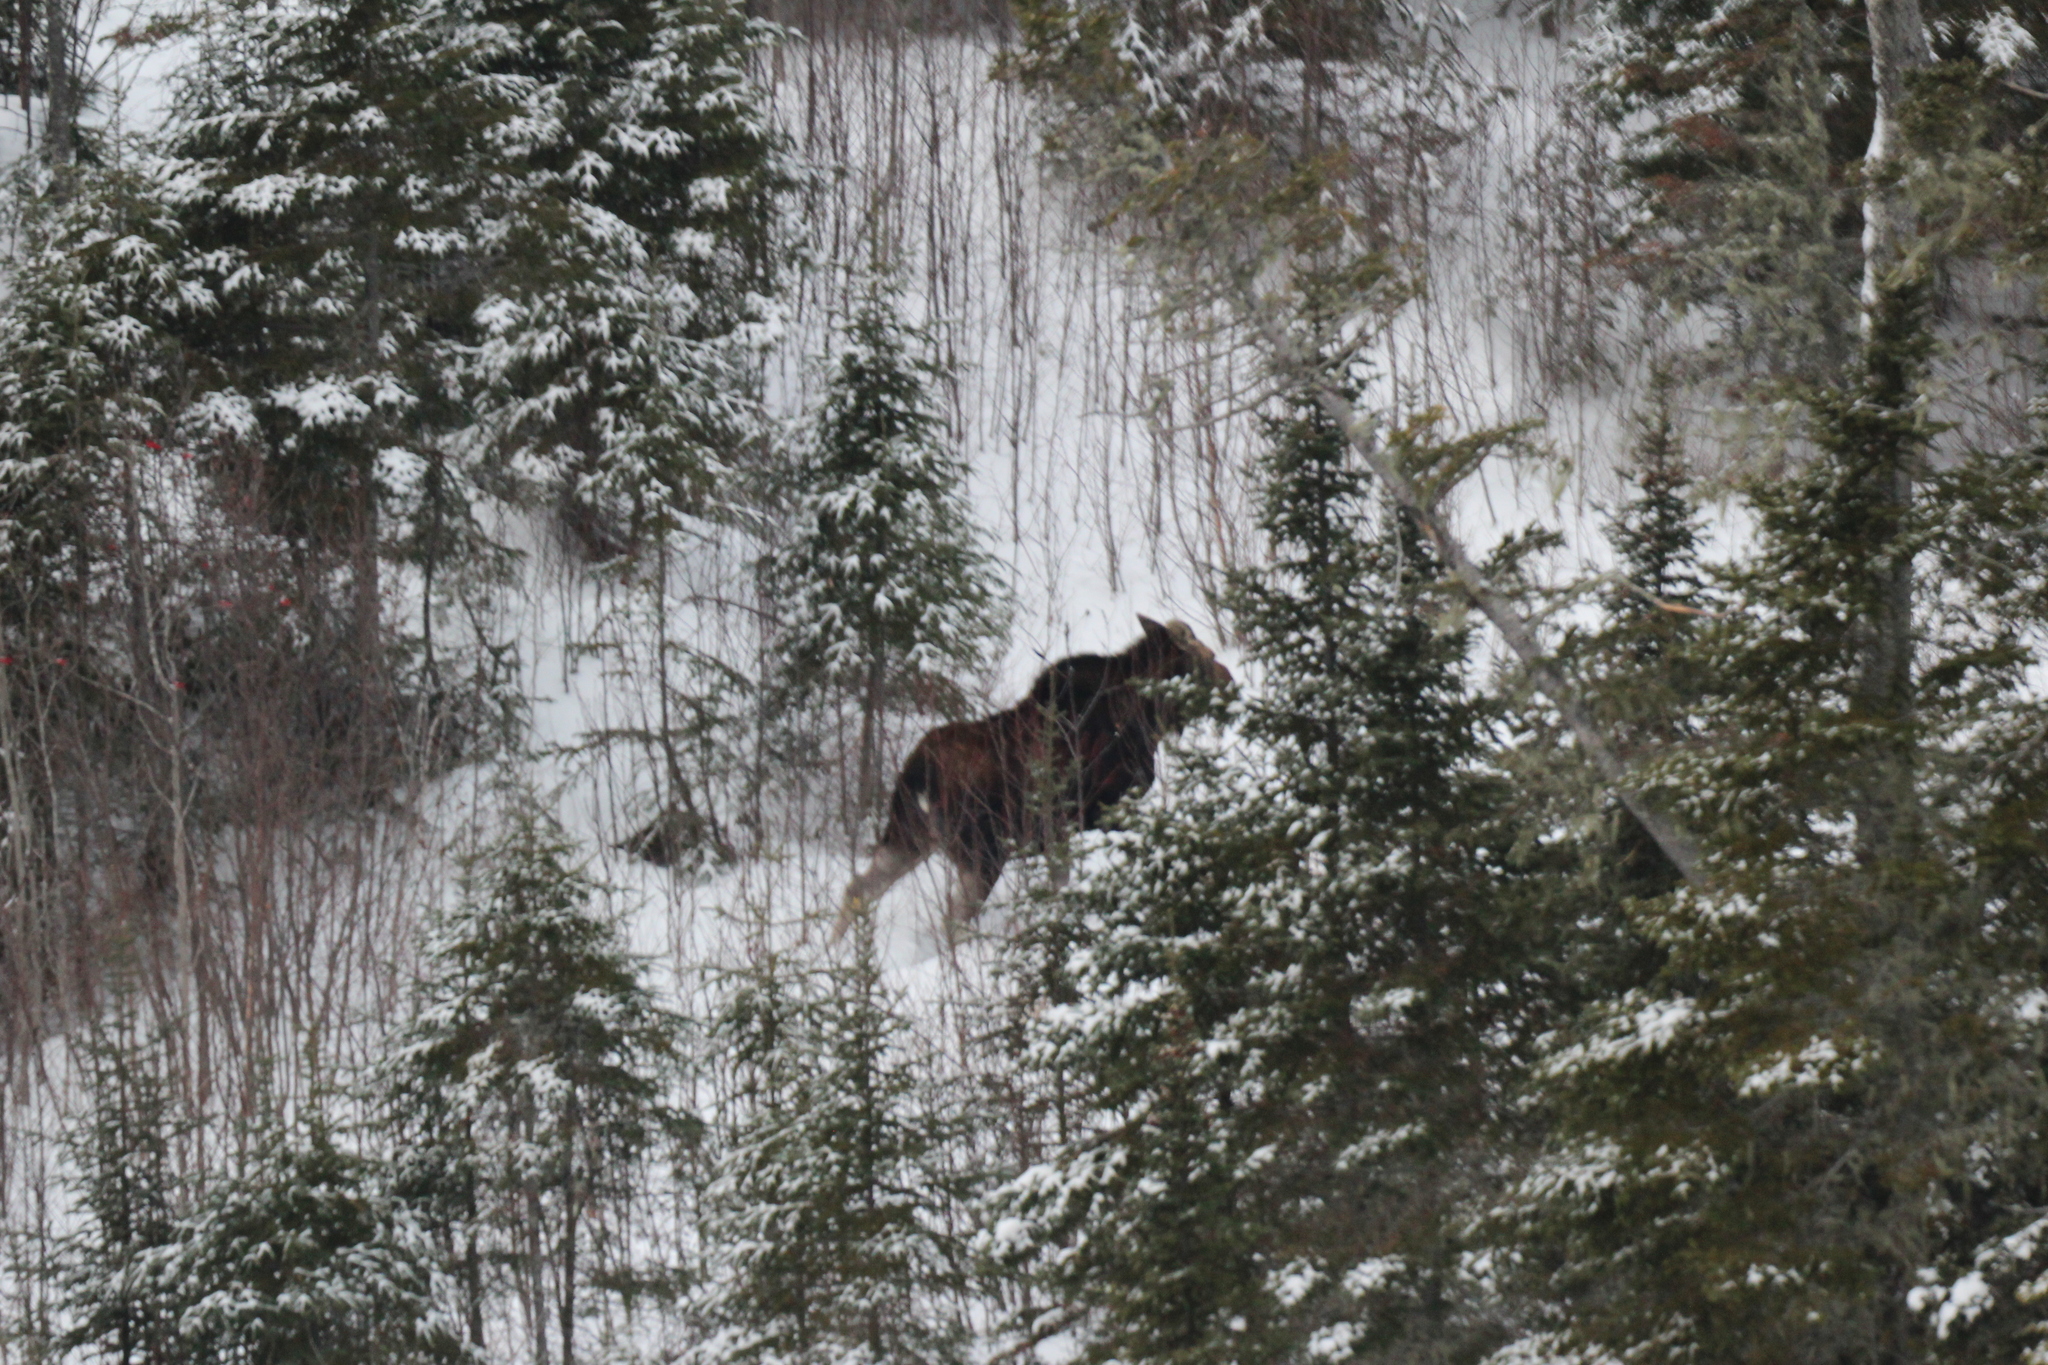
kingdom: Animalia
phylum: Chordata
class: Mammalia
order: Artiodactyla
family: Cervidae
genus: Alces
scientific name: Alces alces
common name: Moose
